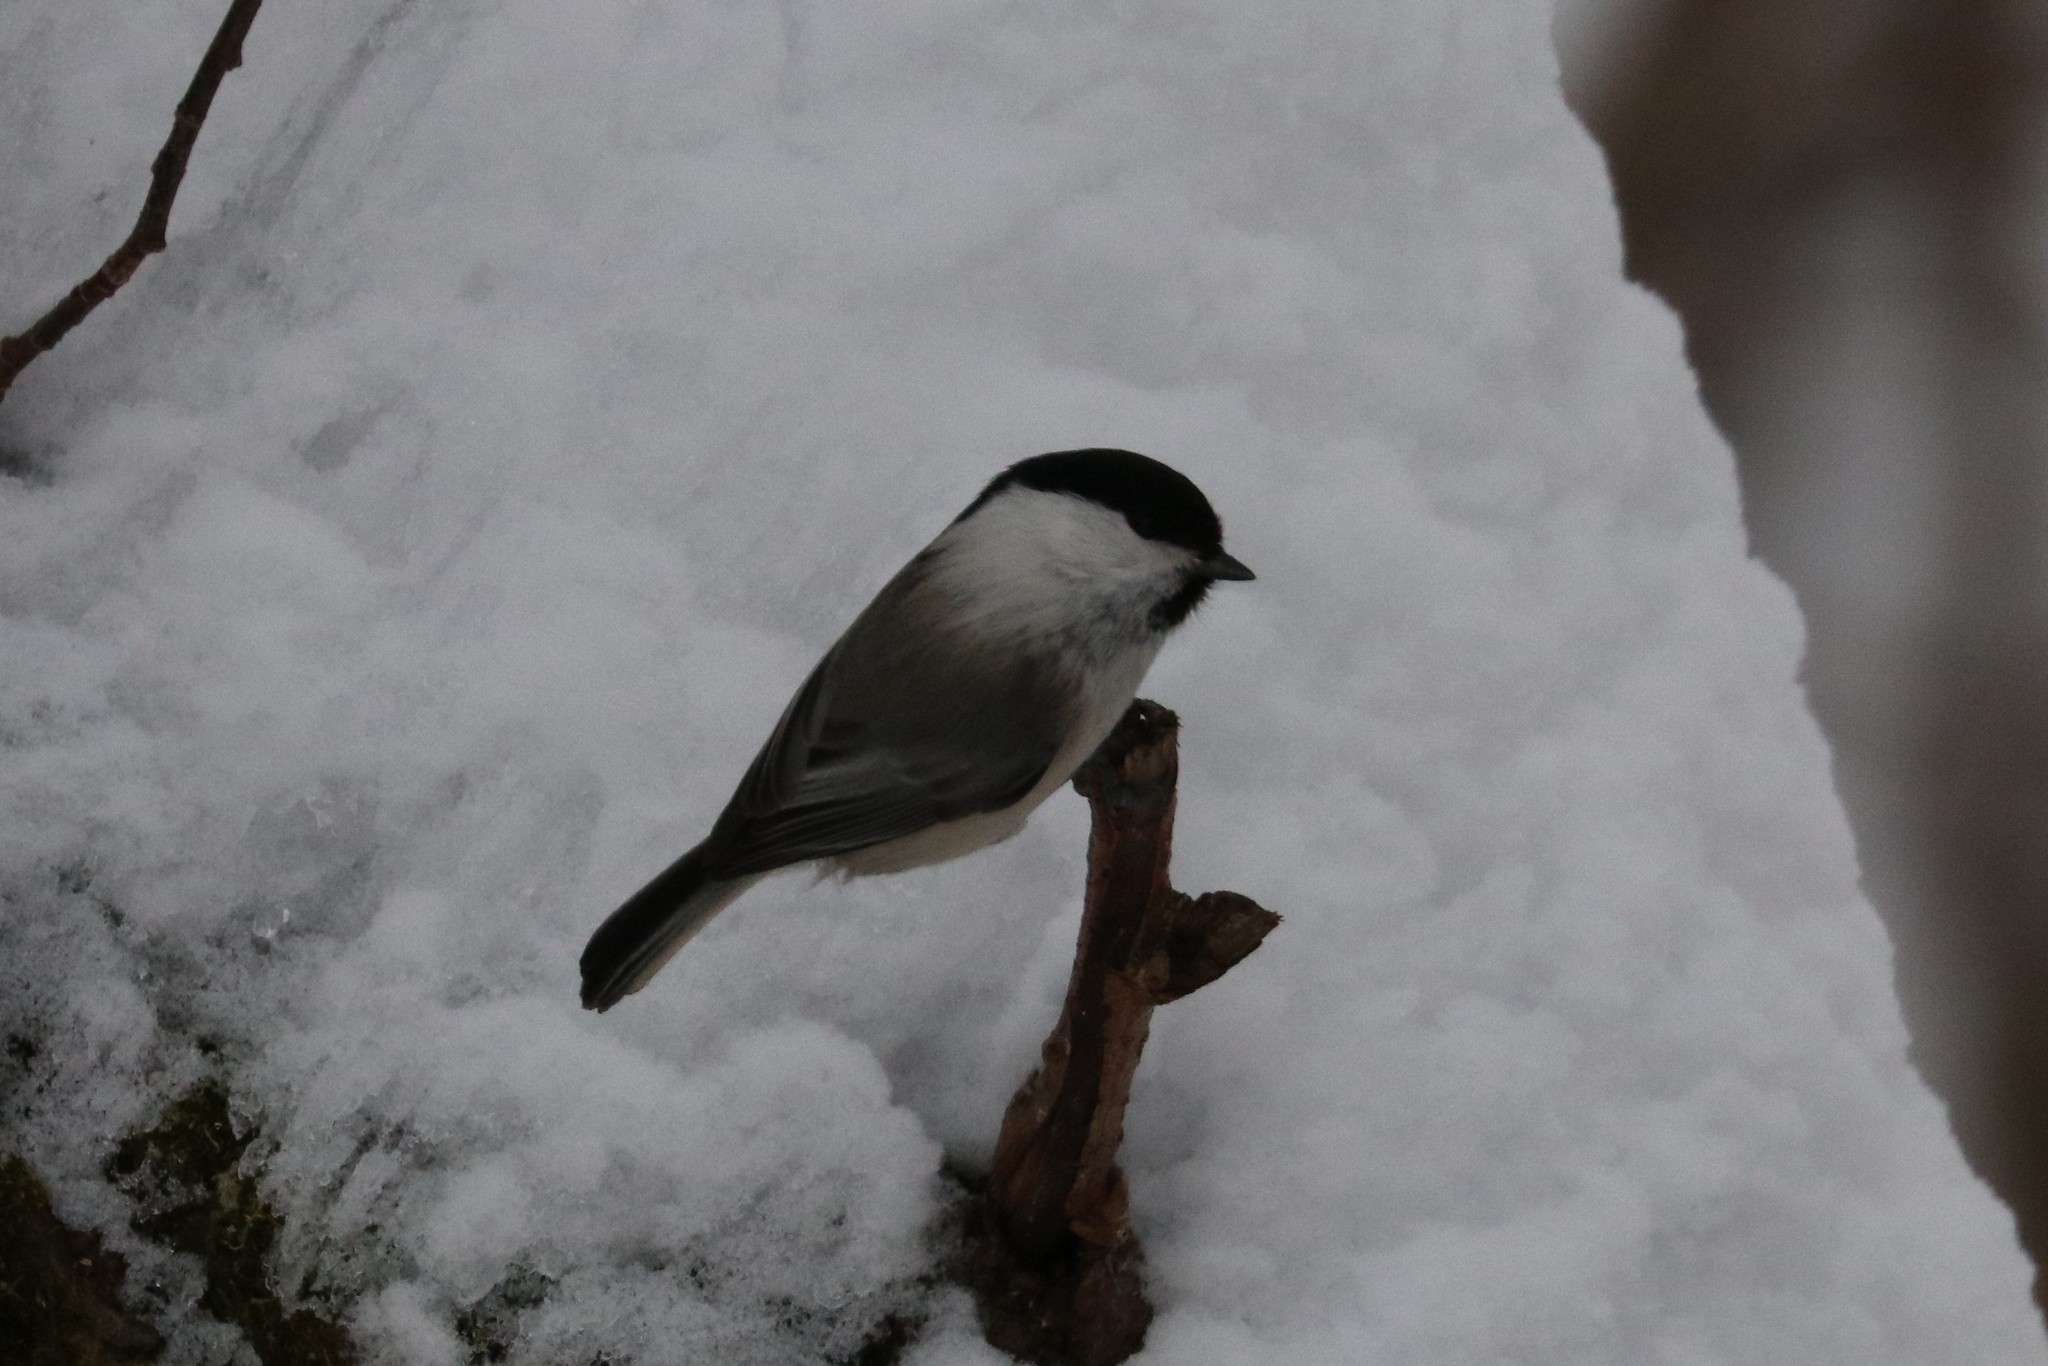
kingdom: Animalia
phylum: Chordata
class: Aves
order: Passeriformes
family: Paridae
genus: Poecile
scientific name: Poecile montanus
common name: Willow tit
